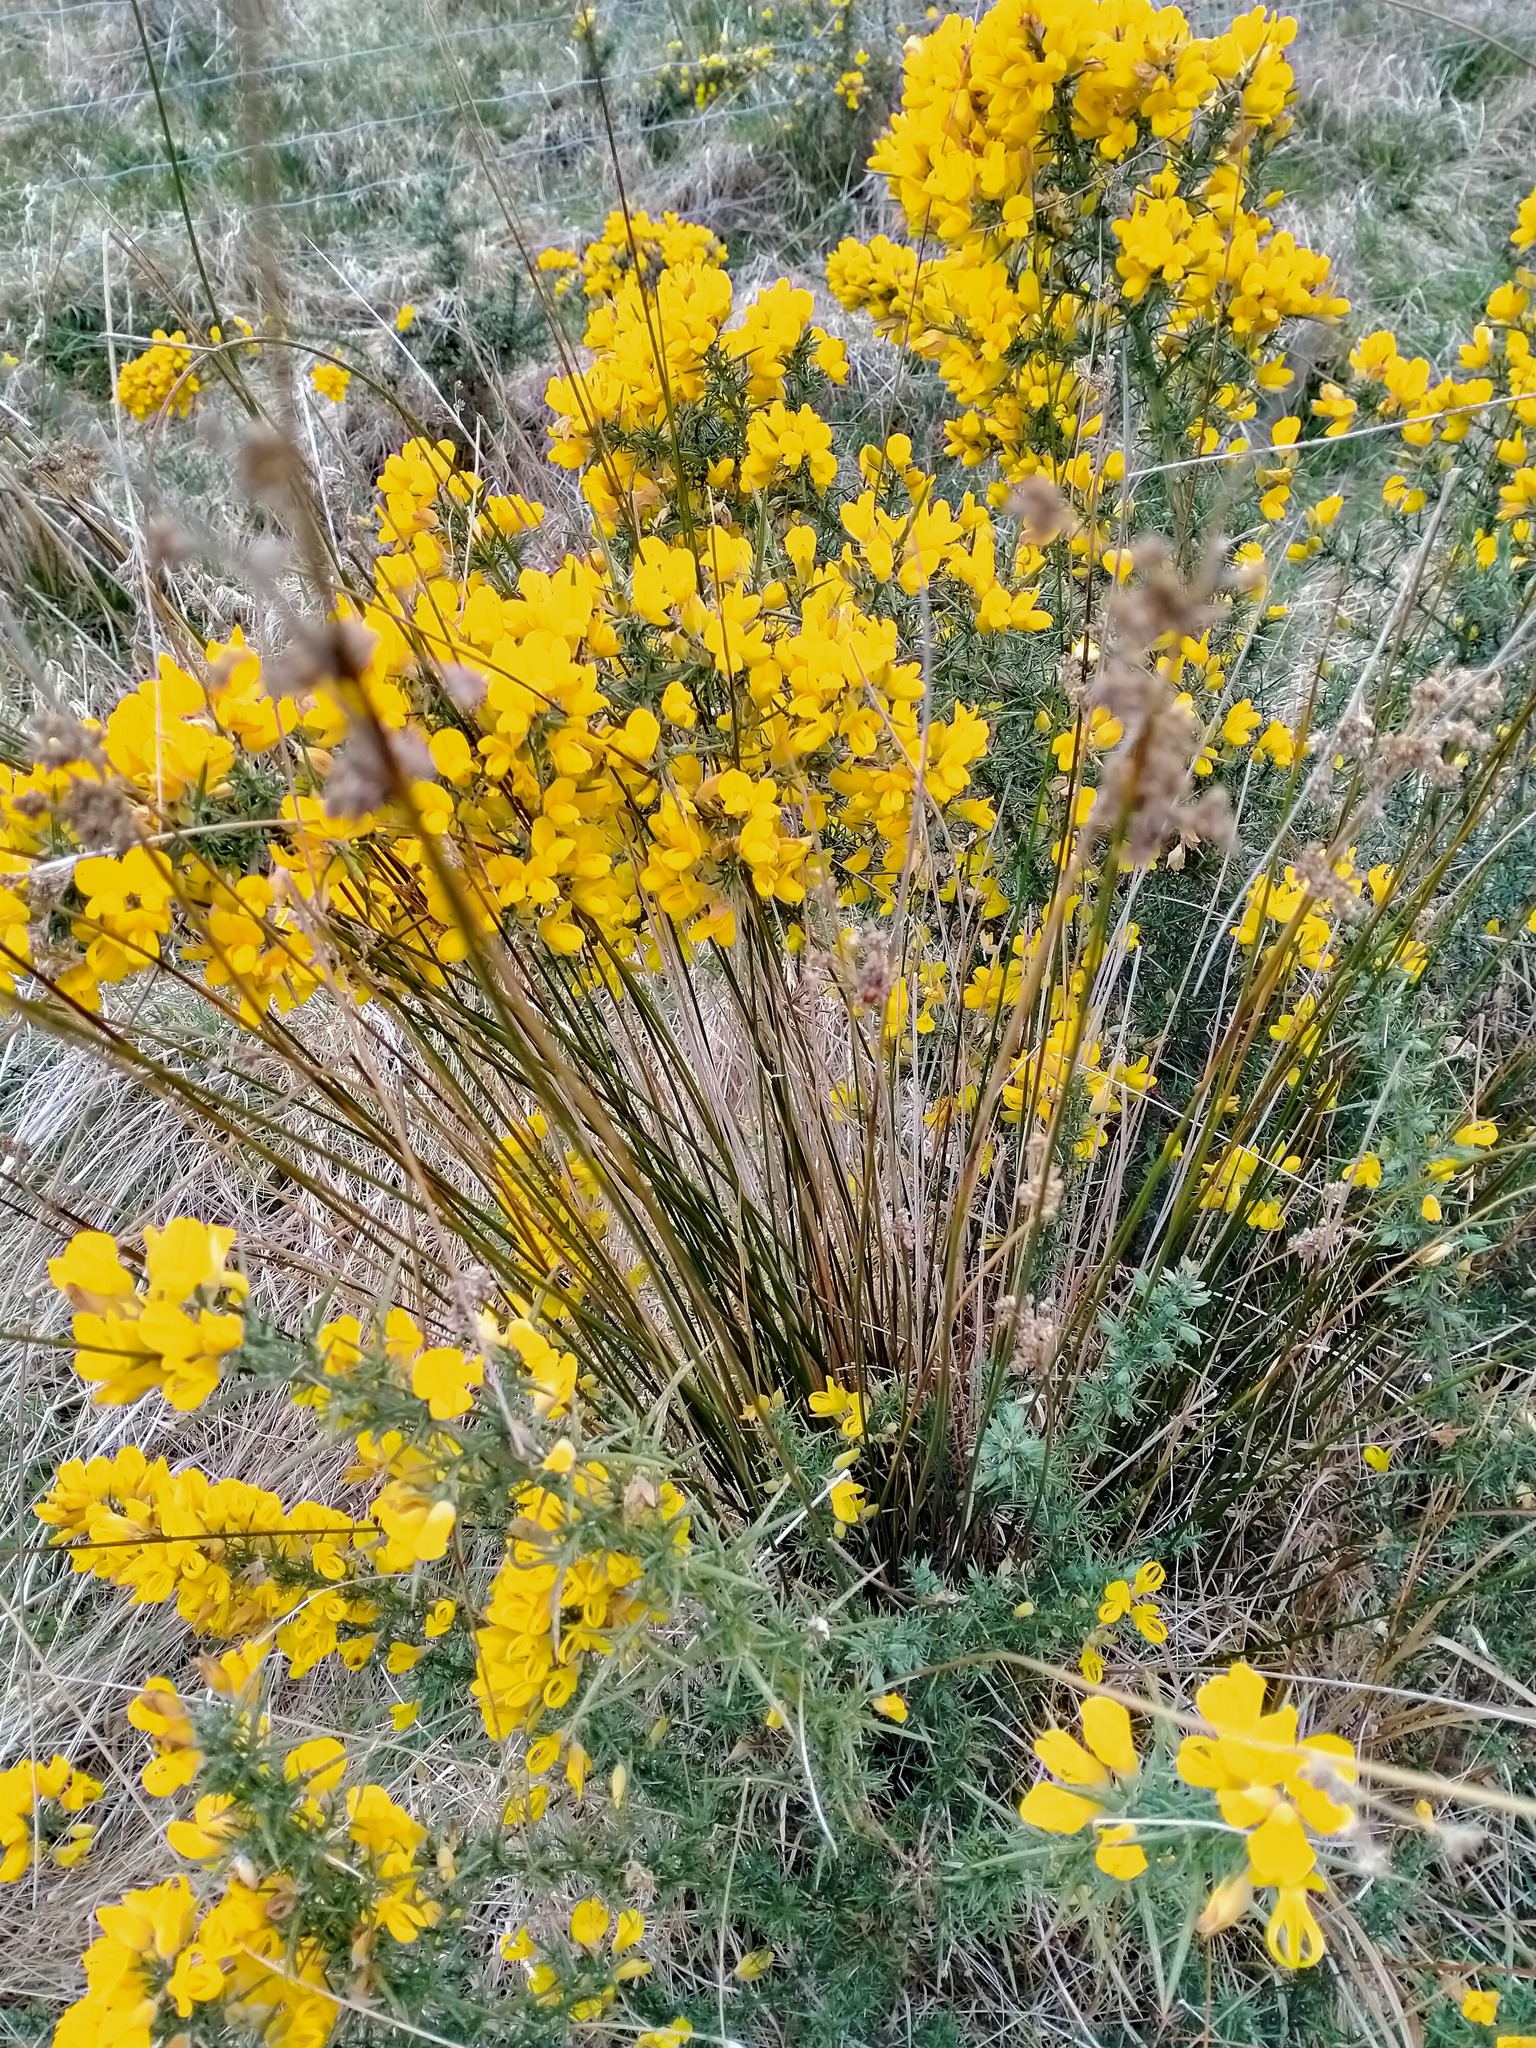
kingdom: Plantae
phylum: Tracheophyta
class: Liliopsida
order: Poales
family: Juncaceae
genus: Juncus
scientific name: Juncus edgariae
